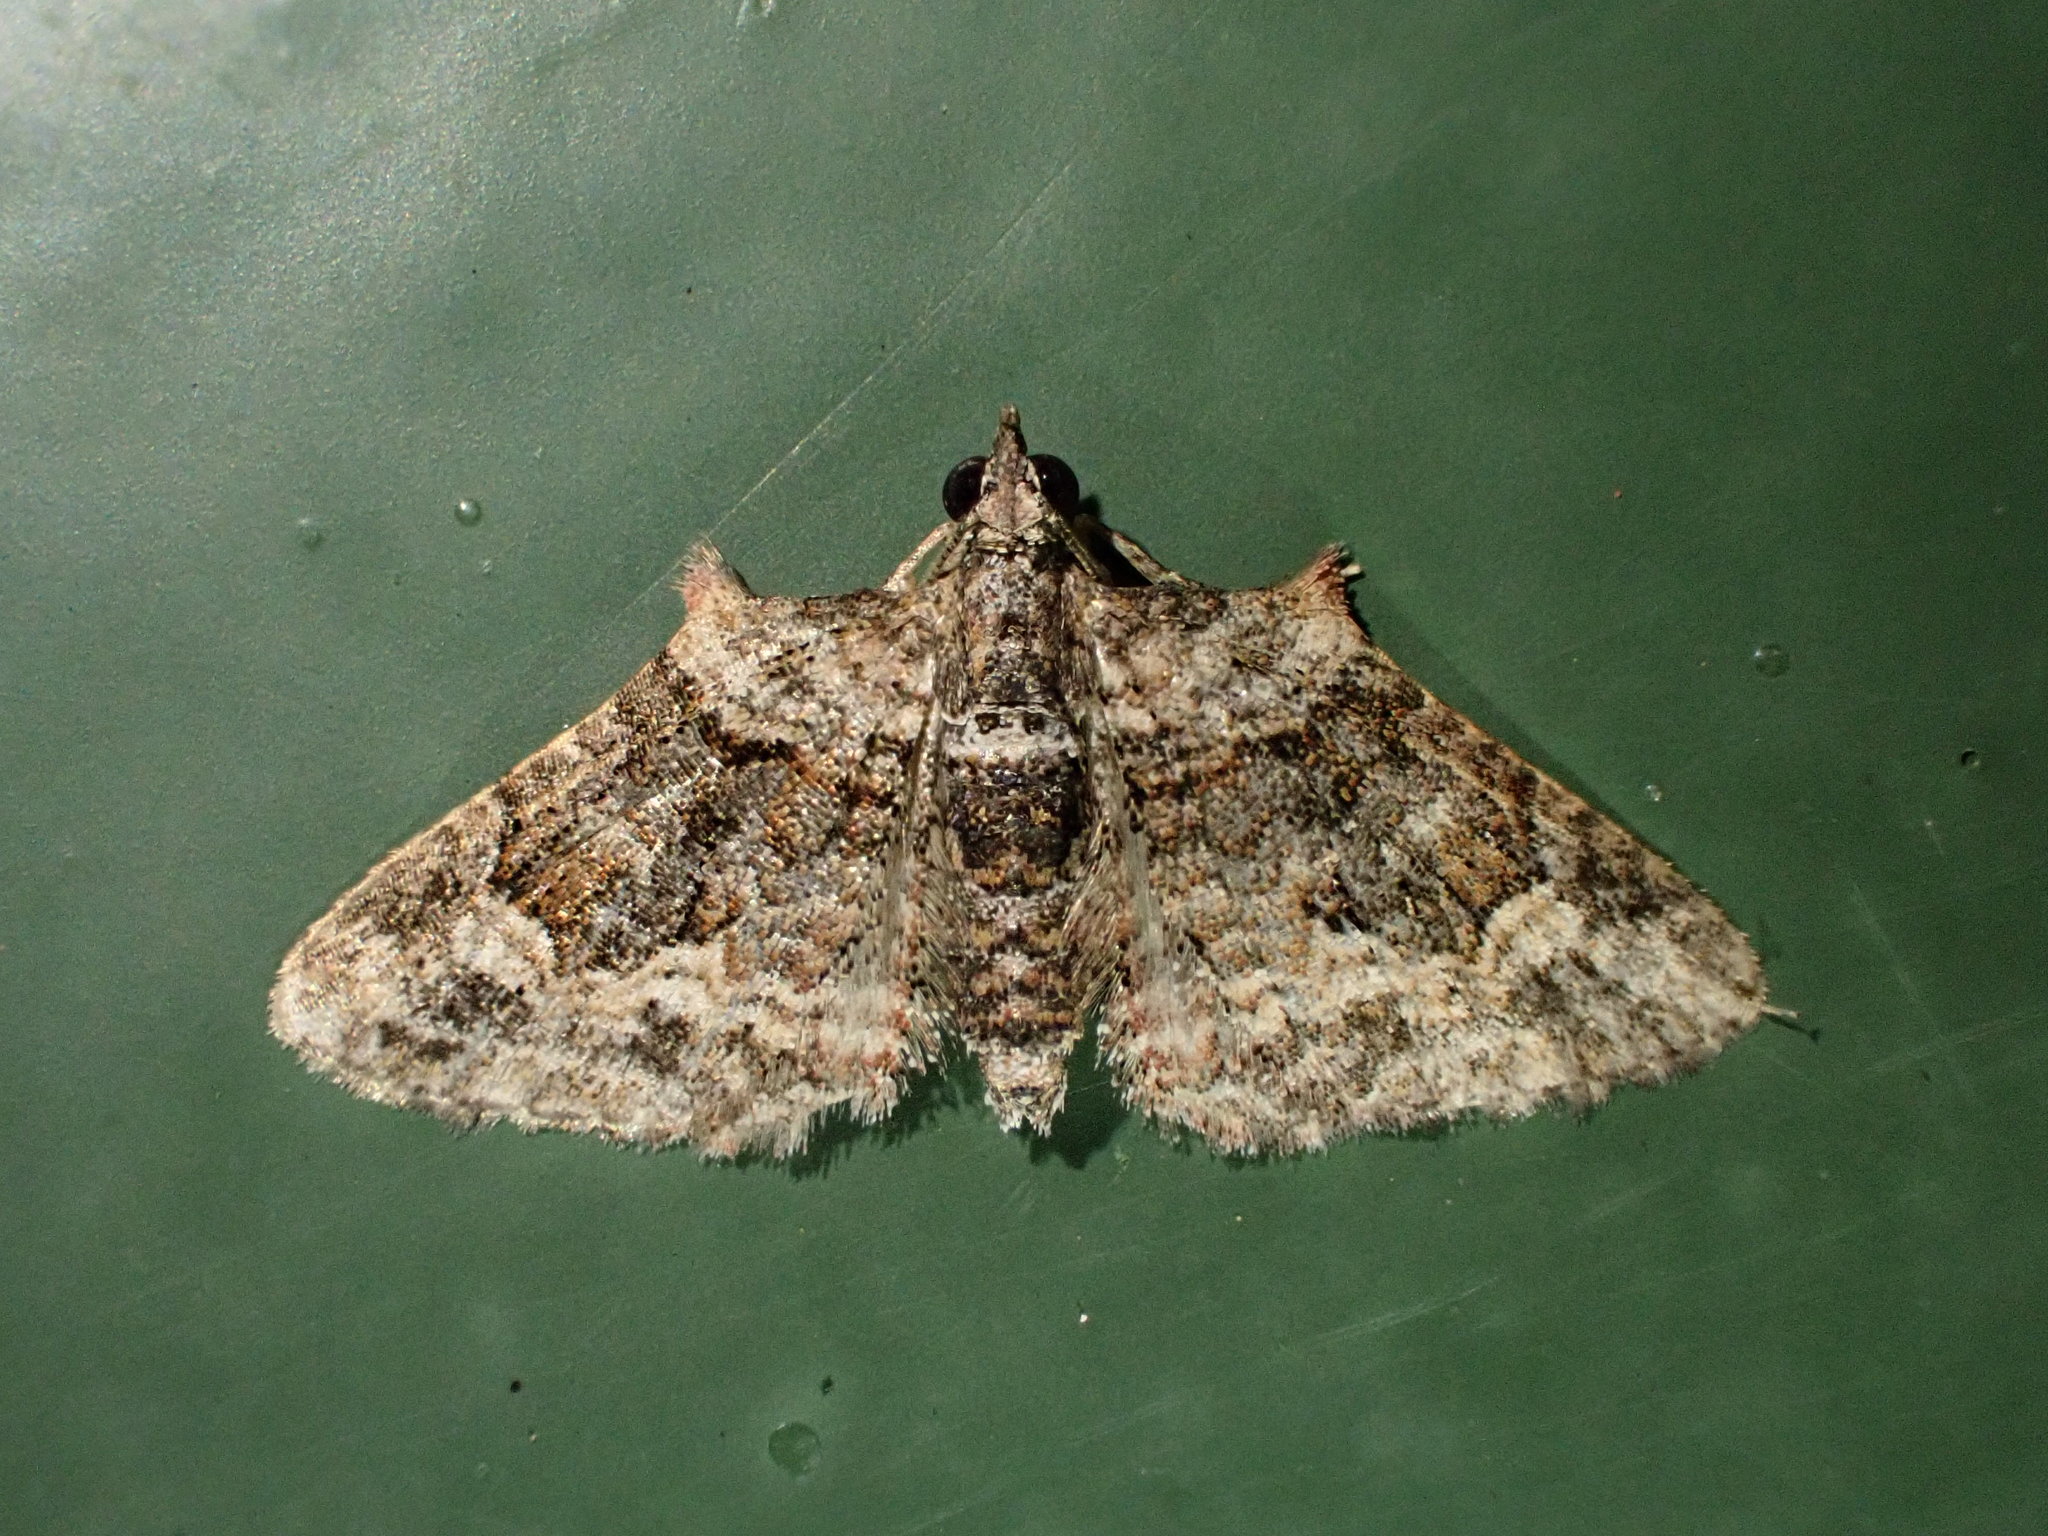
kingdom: Animalia
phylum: Arthropoda
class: Insecta
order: Lepidoptera
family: Geometridae
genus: Phrissogonus
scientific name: Phrissogonus laticostata
